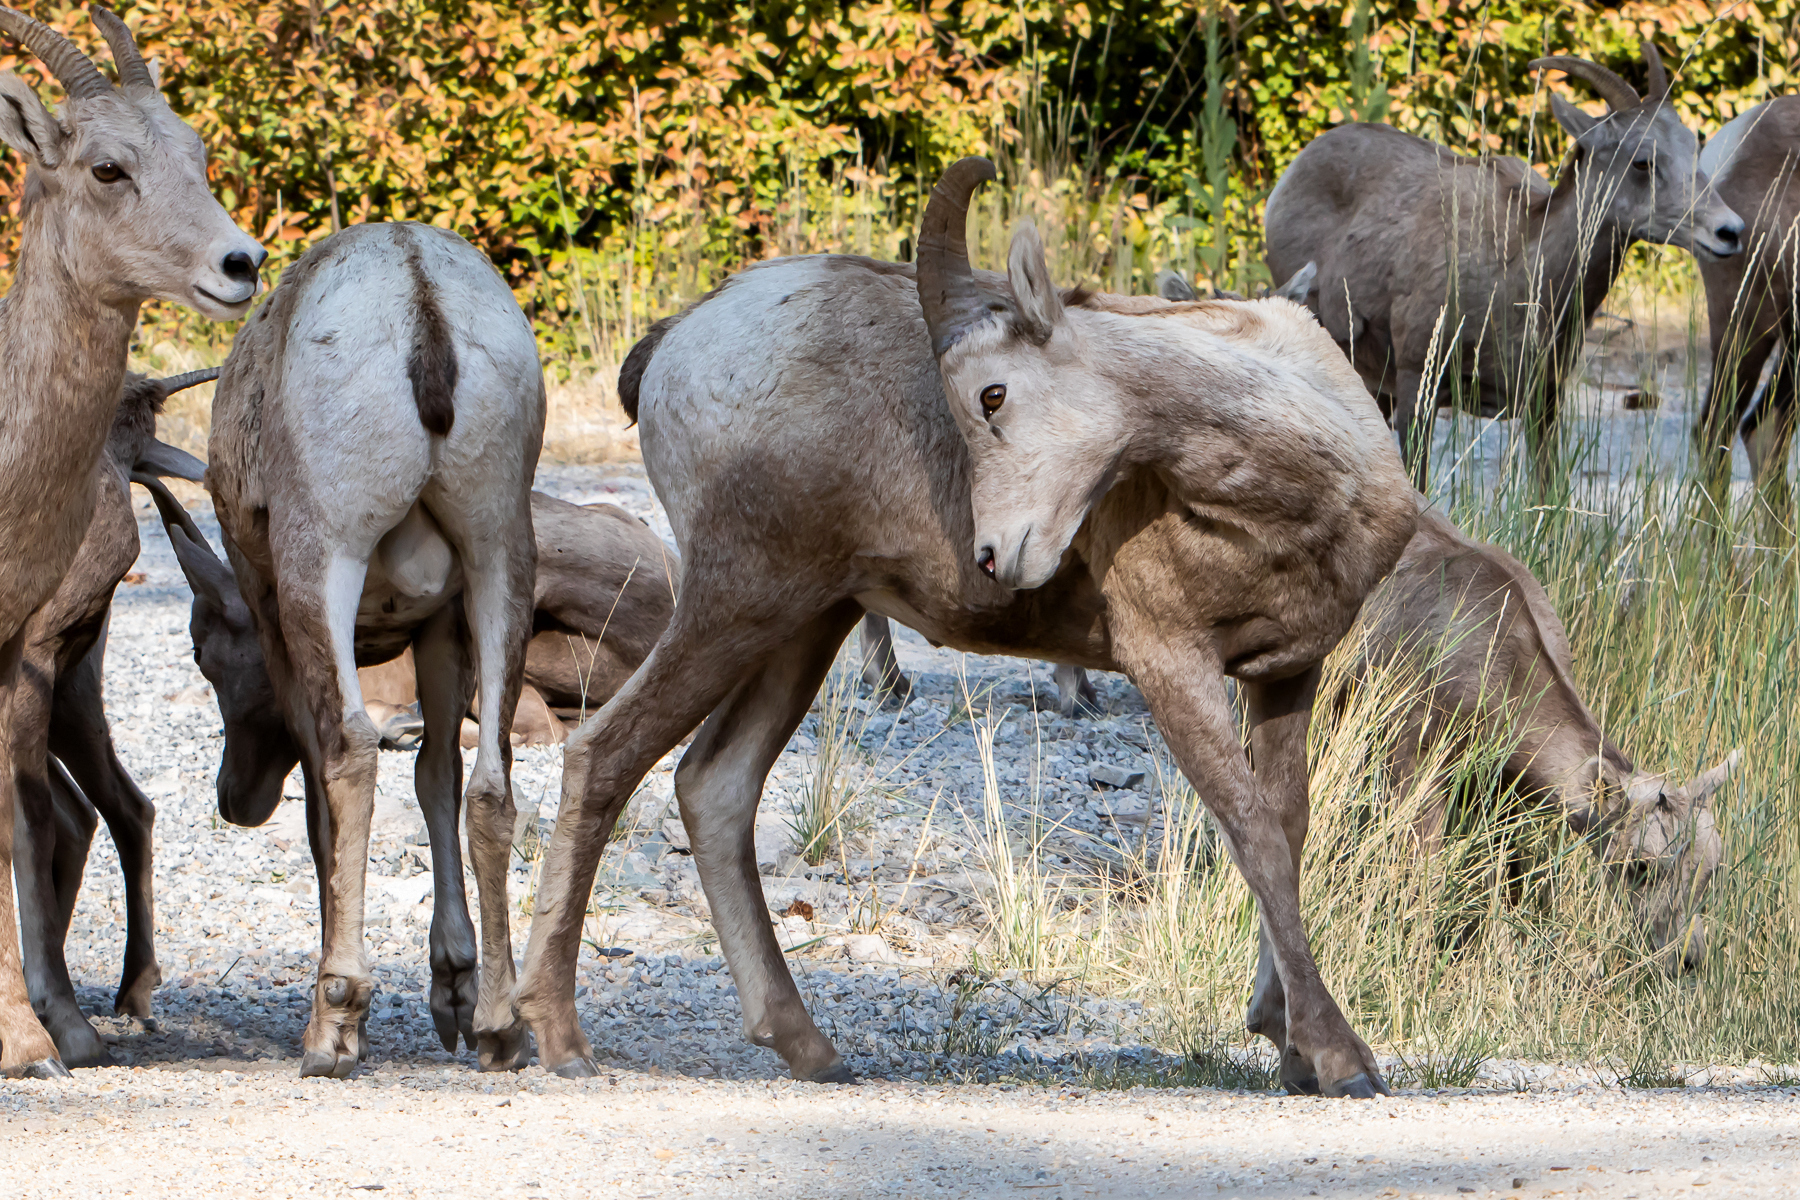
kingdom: Animalia
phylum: Chordata
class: Mammalia
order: Artiodactyla
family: Bovidae
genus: Ovis
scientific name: Ovis canadensis
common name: Bighorn sheep
